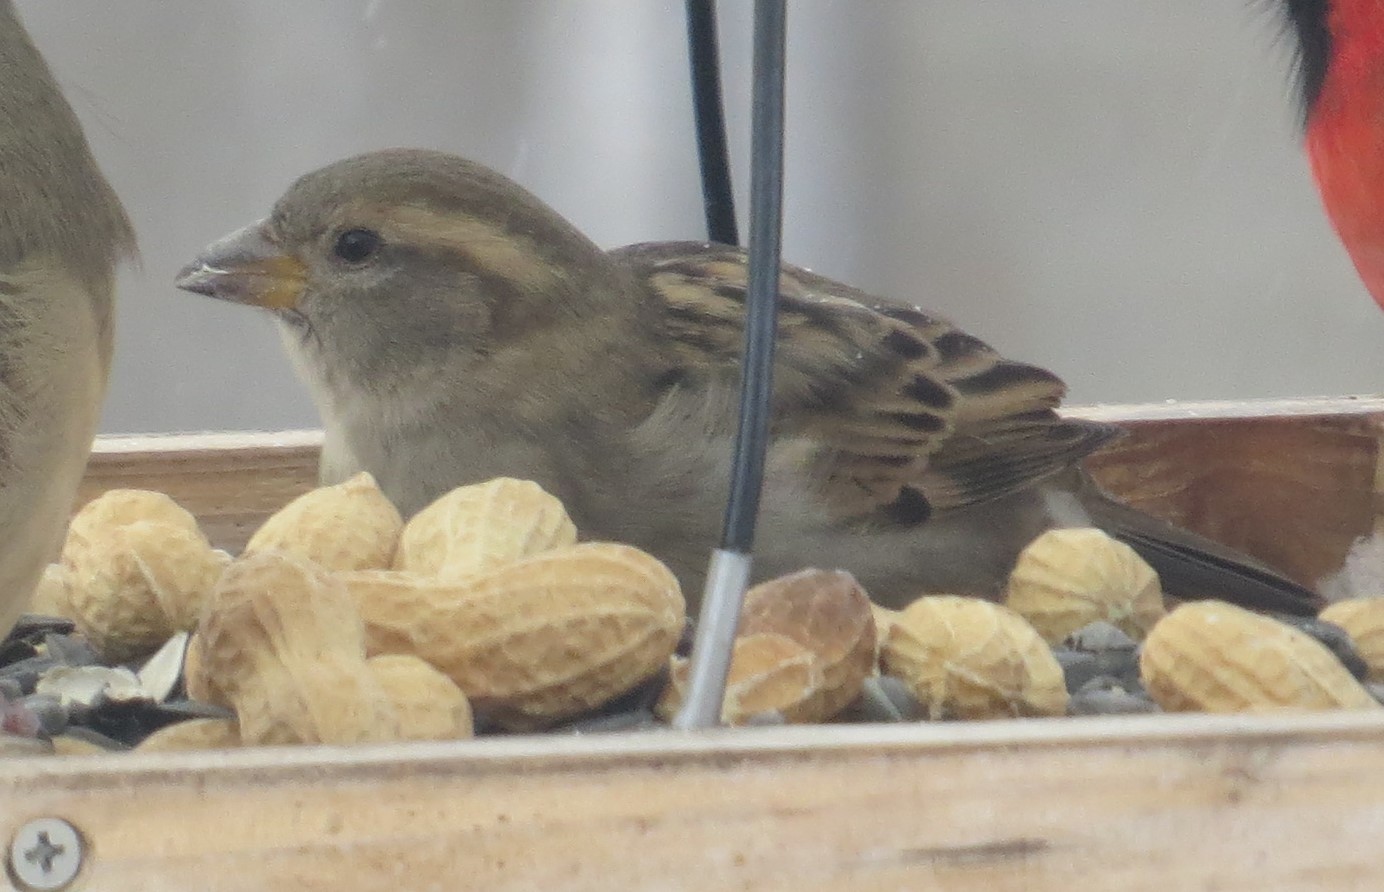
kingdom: Animalia
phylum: Chordata
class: Aves
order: Passeriformes
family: Passeridae
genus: Passer
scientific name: Passer domesticus
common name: House sparrow
